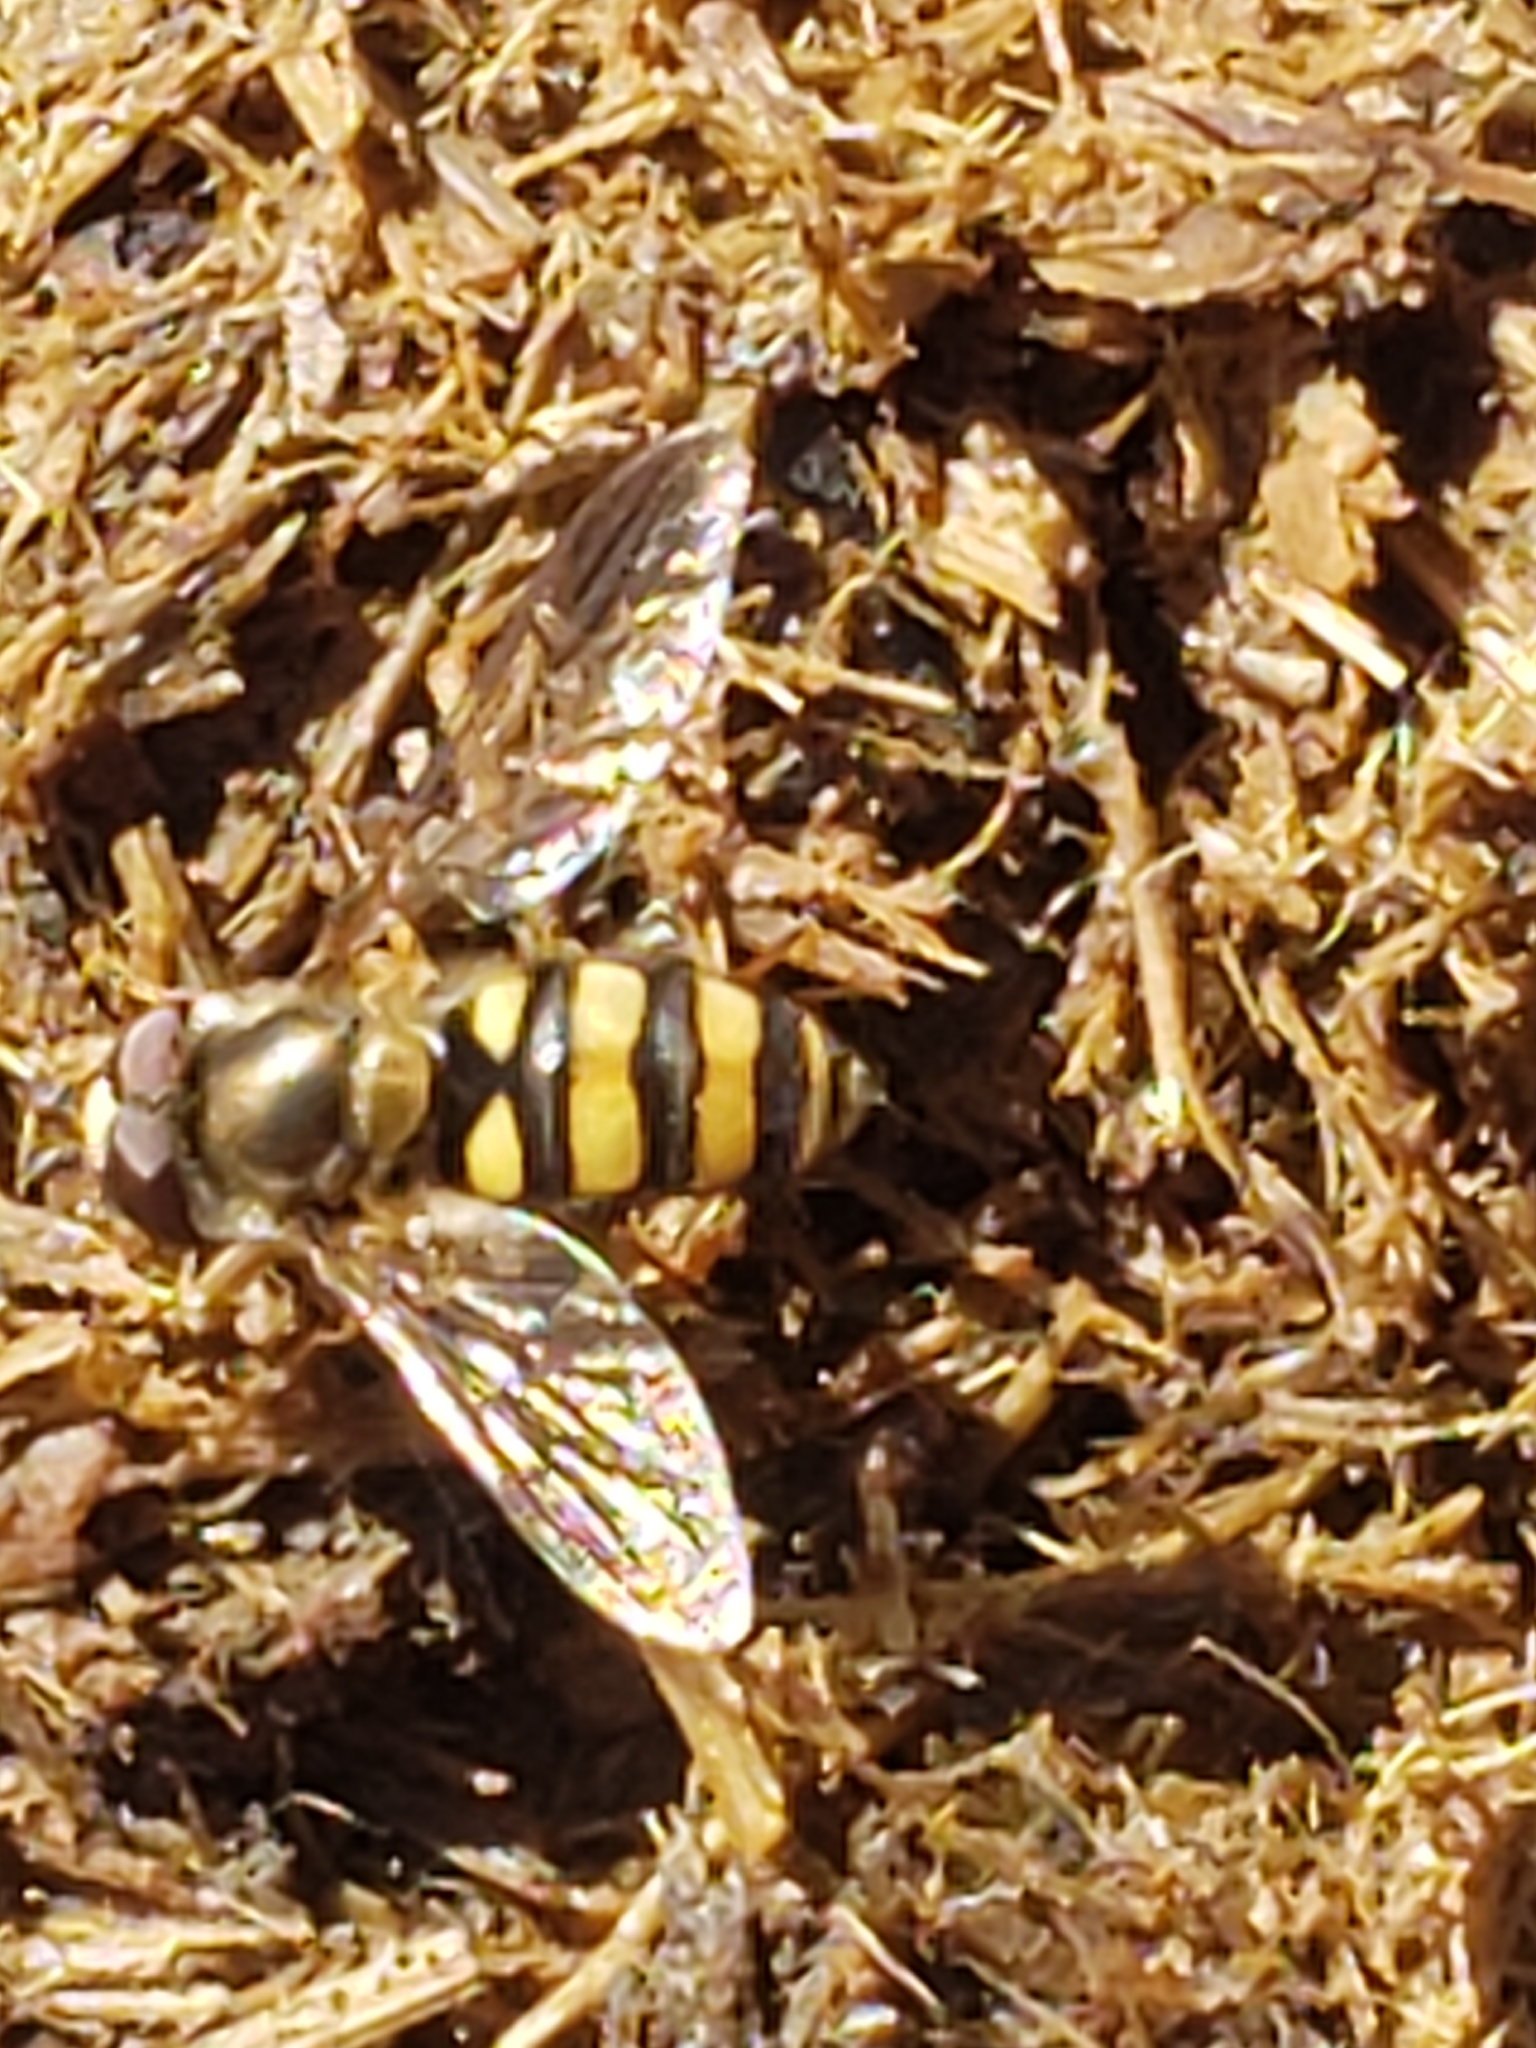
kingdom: Animalia
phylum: Arthropoda
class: Insecta
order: Diptera
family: Syrphidae
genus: Eupeodes
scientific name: Eupeodes
